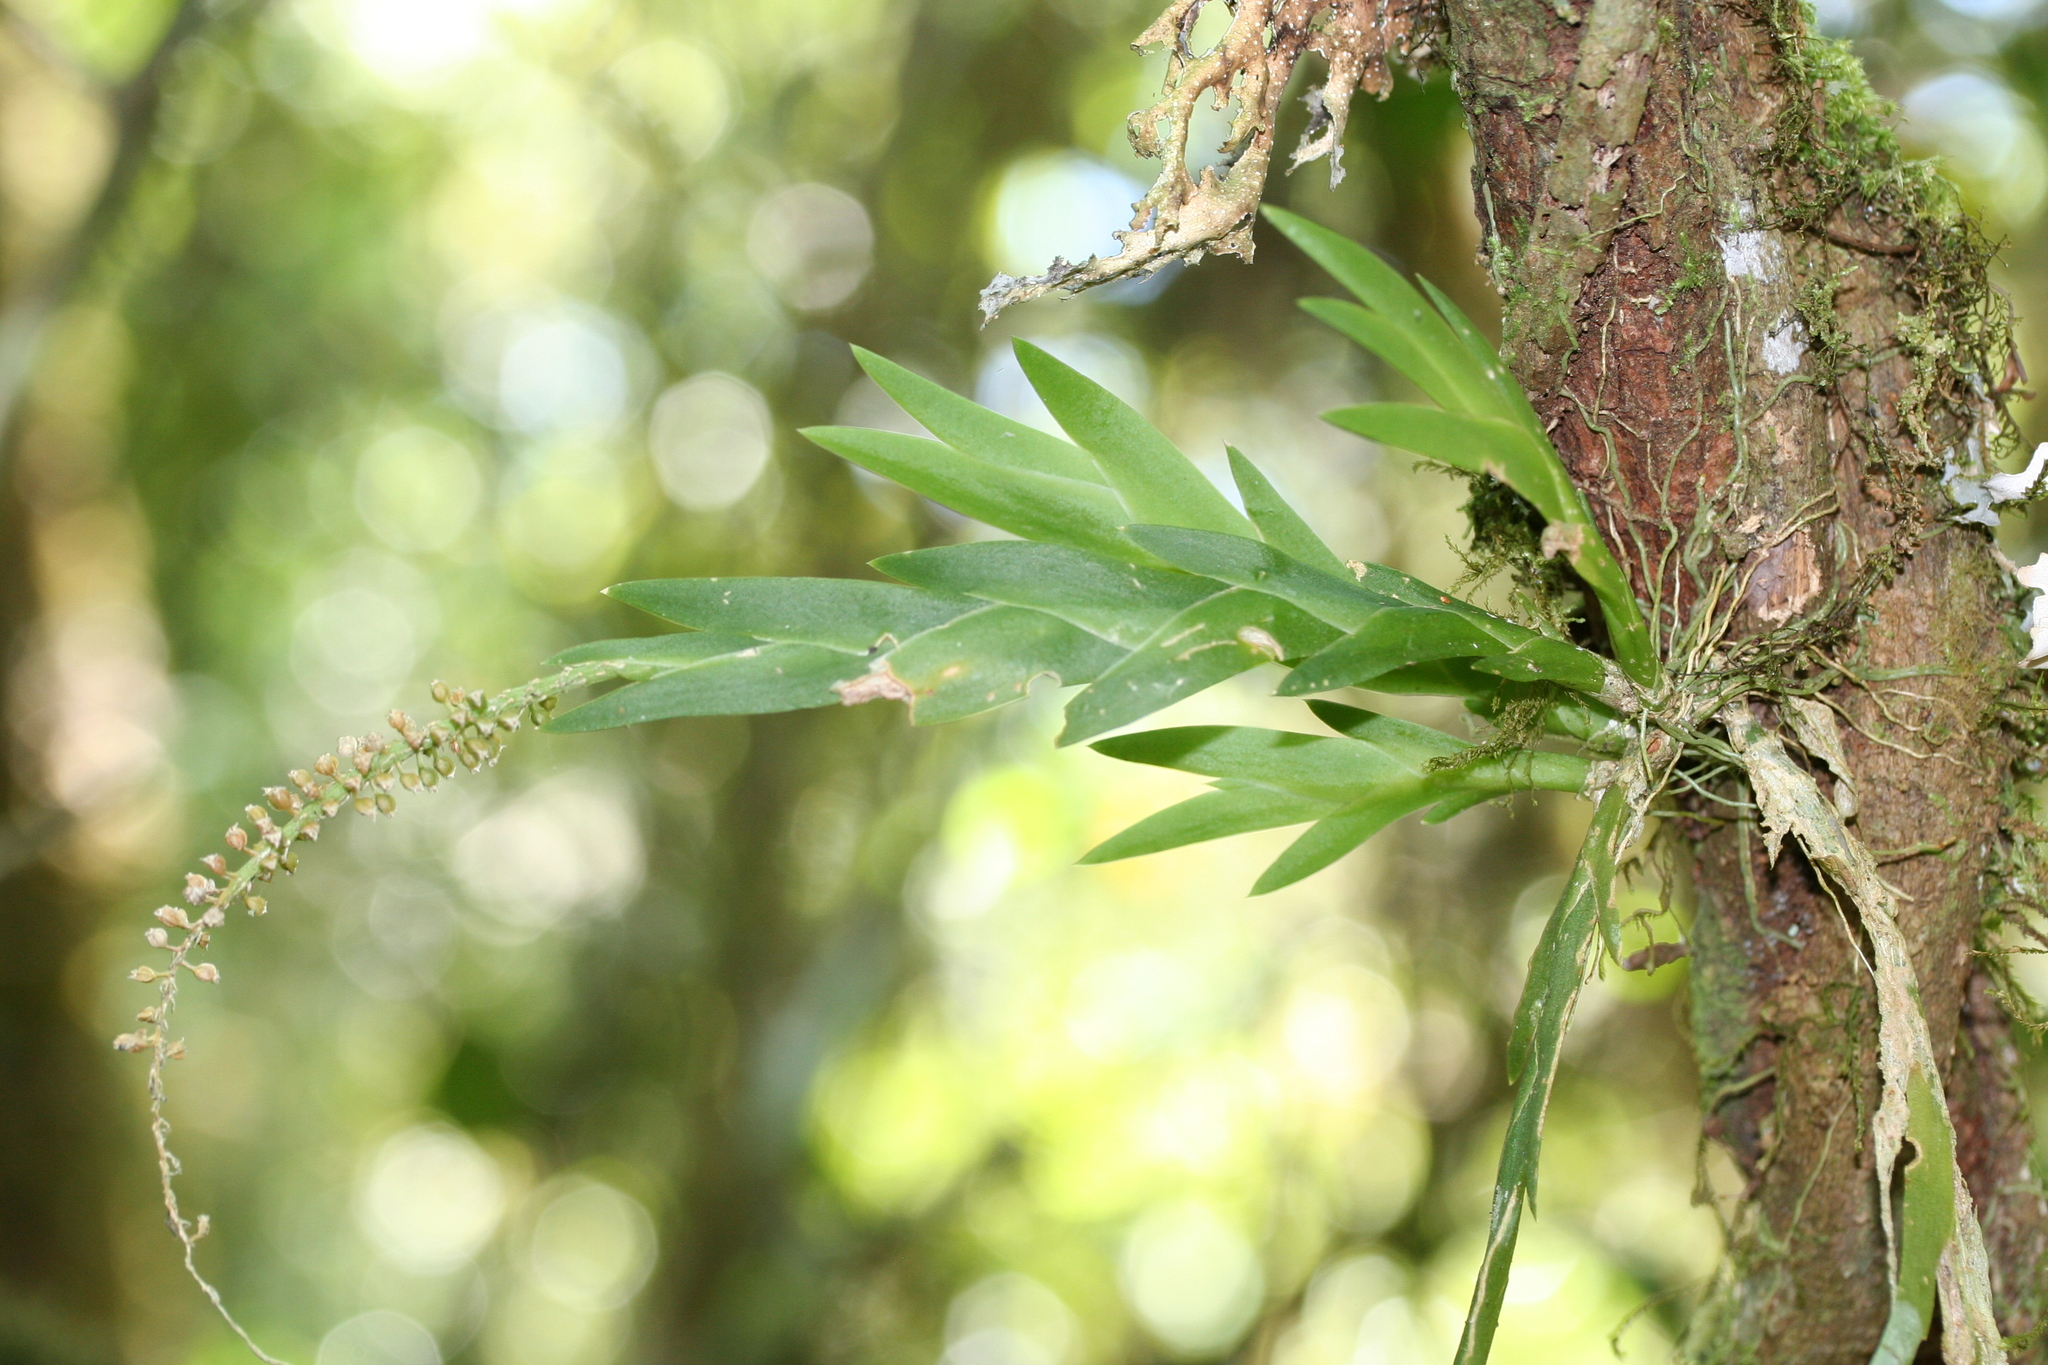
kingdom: Plantae
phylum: Tracheophyta
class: Liliopsida
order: Asparagales
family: Orchidaceae
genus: Oberonia
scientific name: Oberonia disticha
